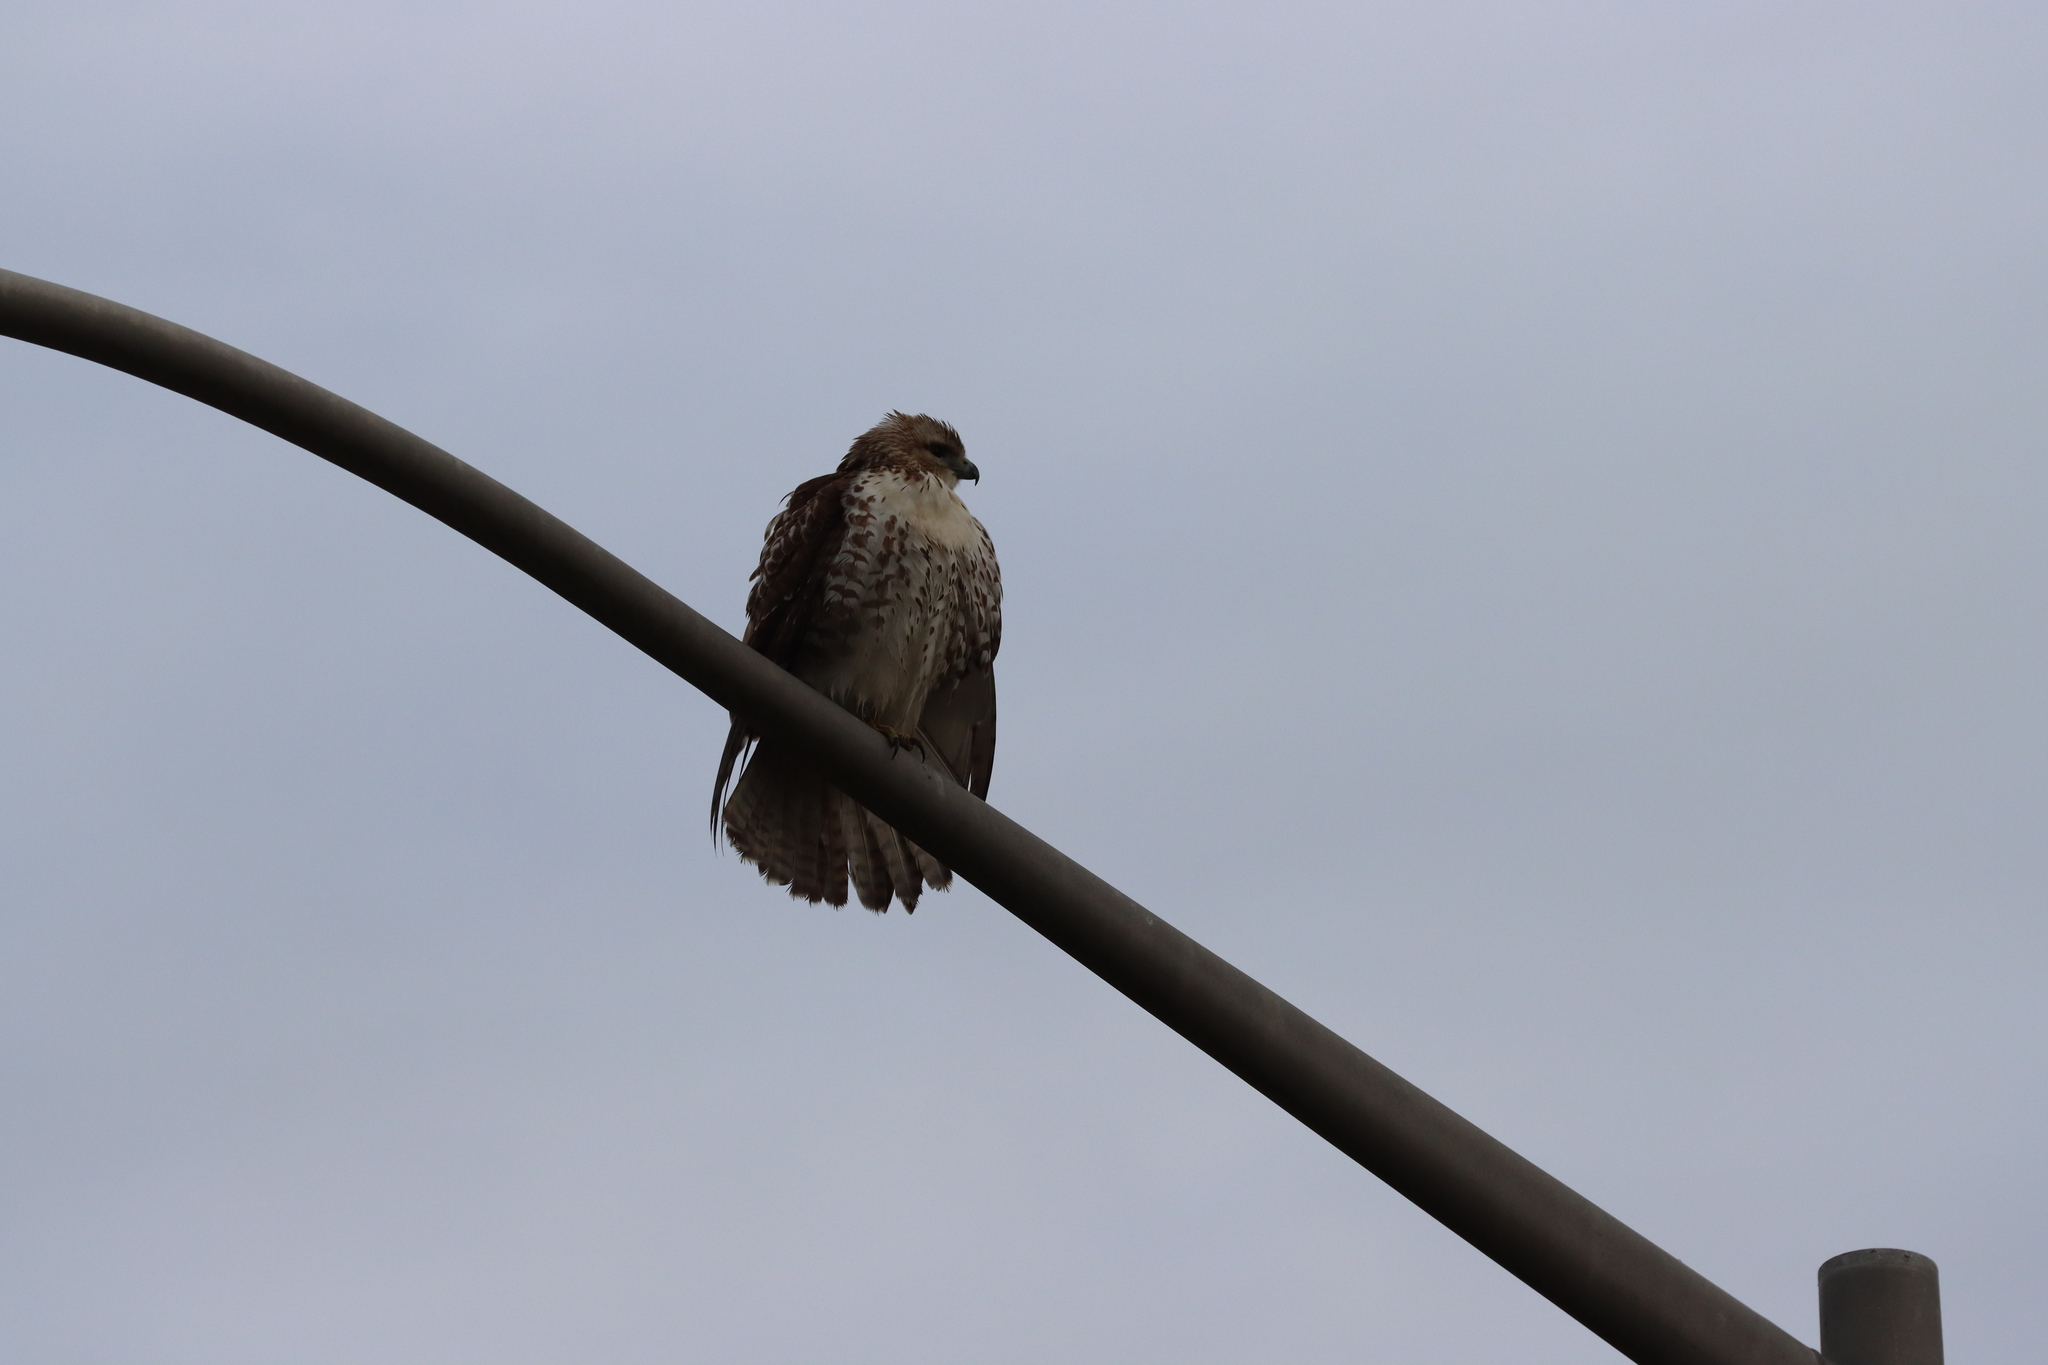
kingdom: Animalia
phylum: Chordata
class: Aves
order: Accipitriformes
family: Accipitridae
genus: Buteo
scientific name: Buteo jamaicensis
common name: Red-tailed hawk
